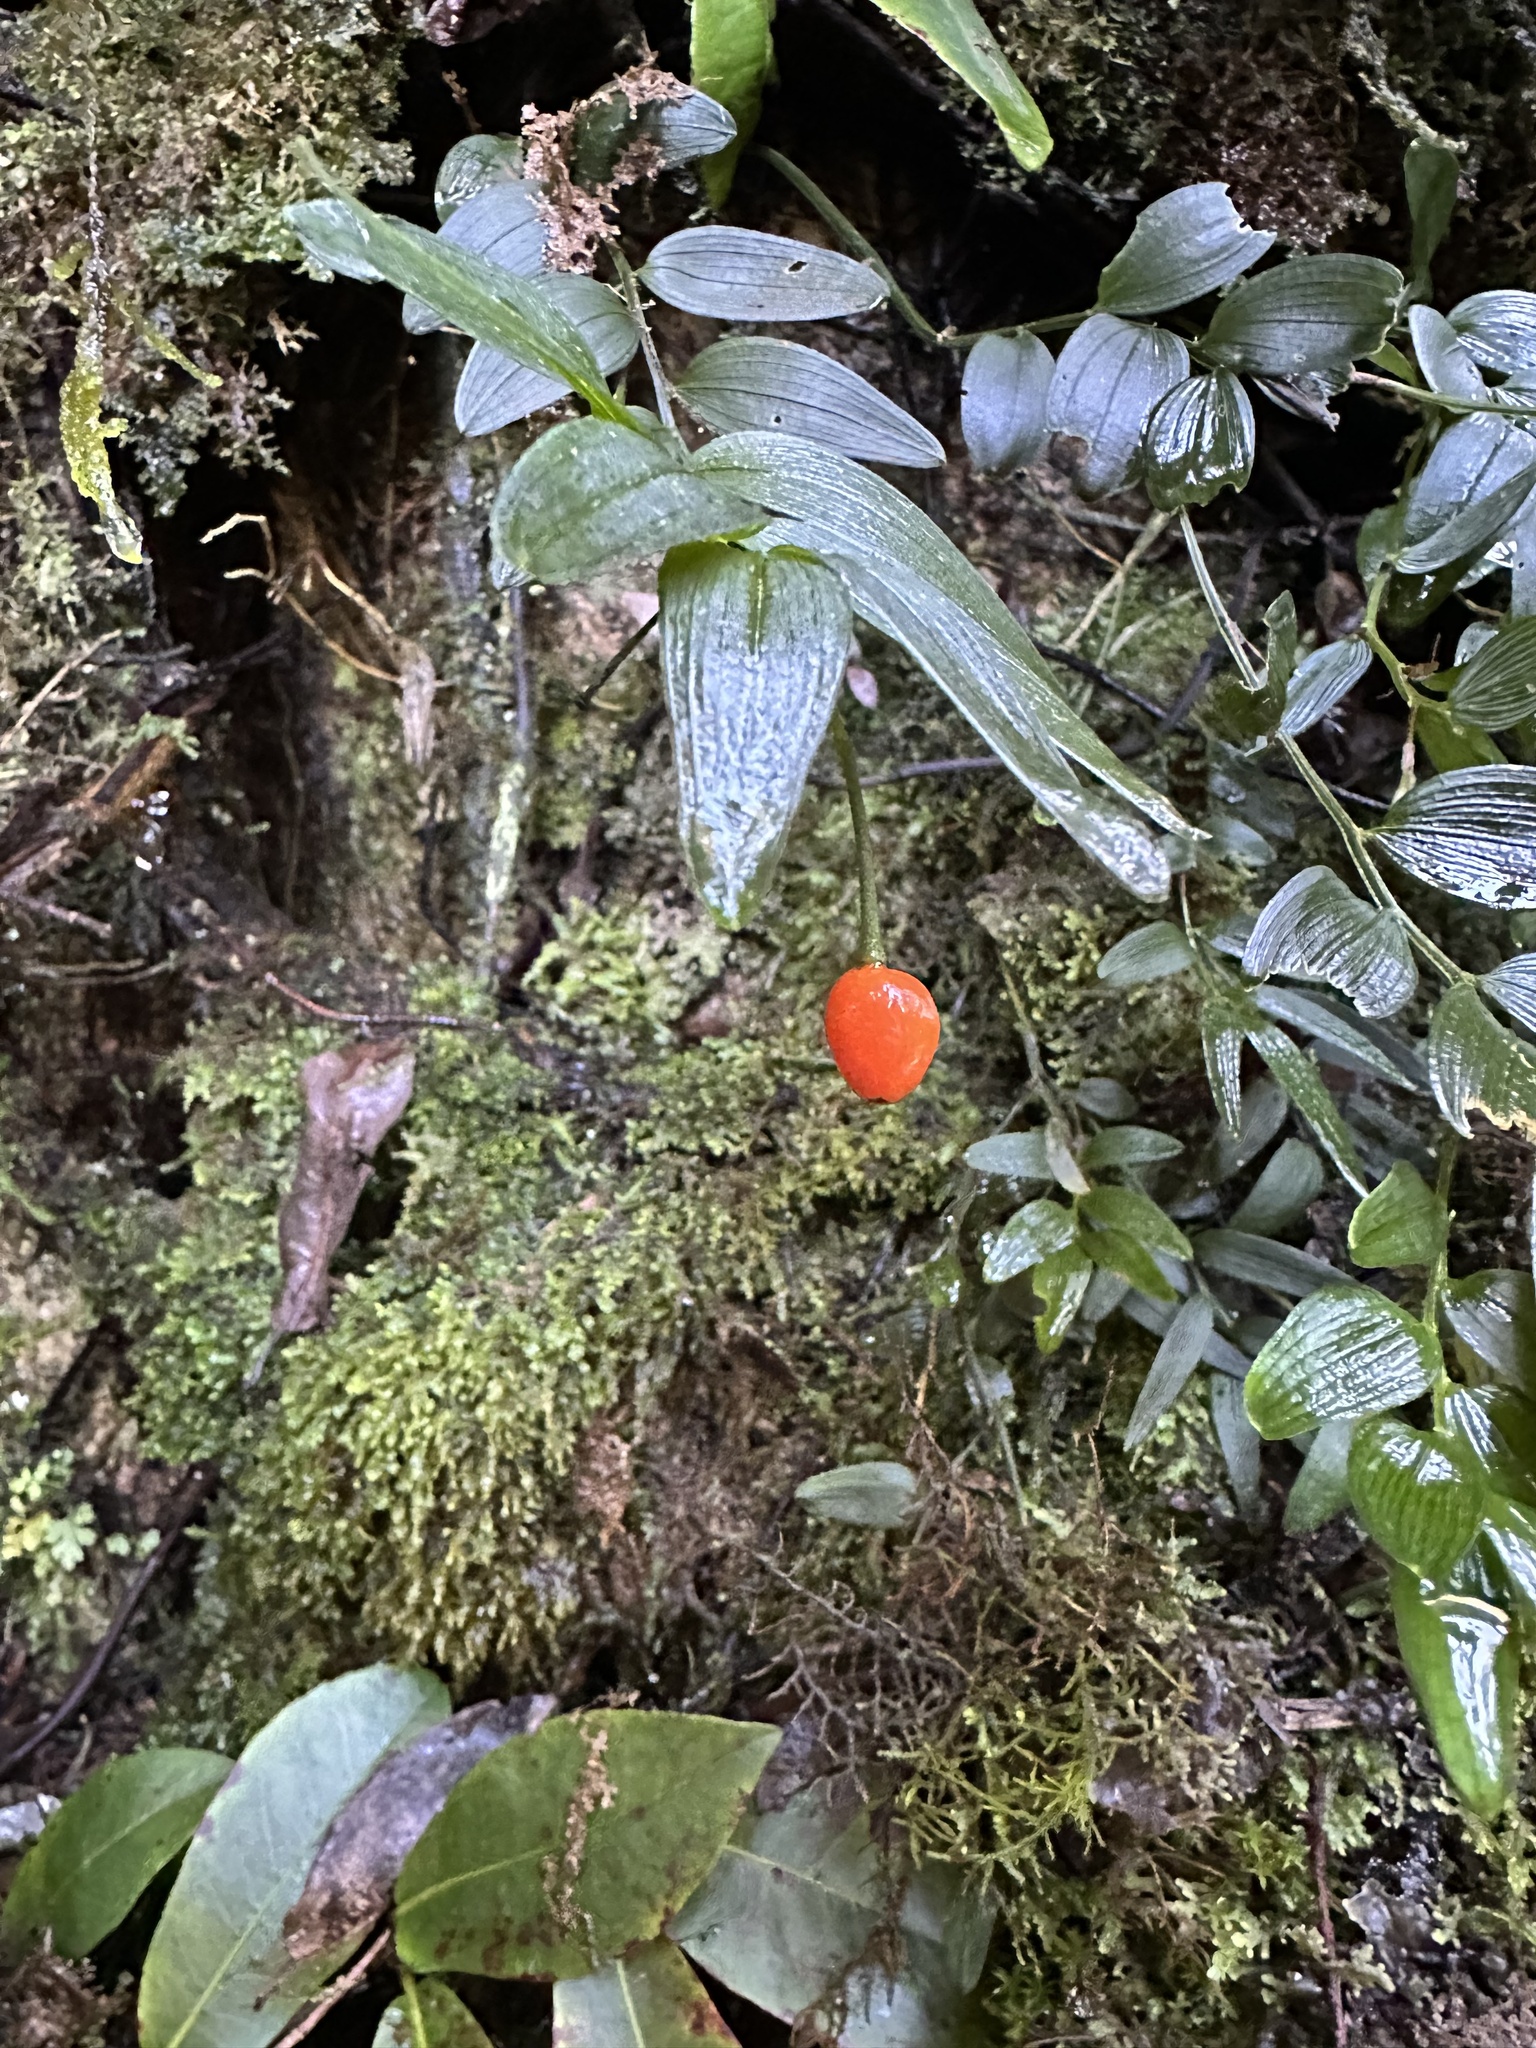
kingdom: Plantae
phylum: Tracheophyta
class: Liliopsida
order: Liliales
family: Alstroemeriaceae
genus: Luzuriaga
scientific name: Luzuriaga radicans
